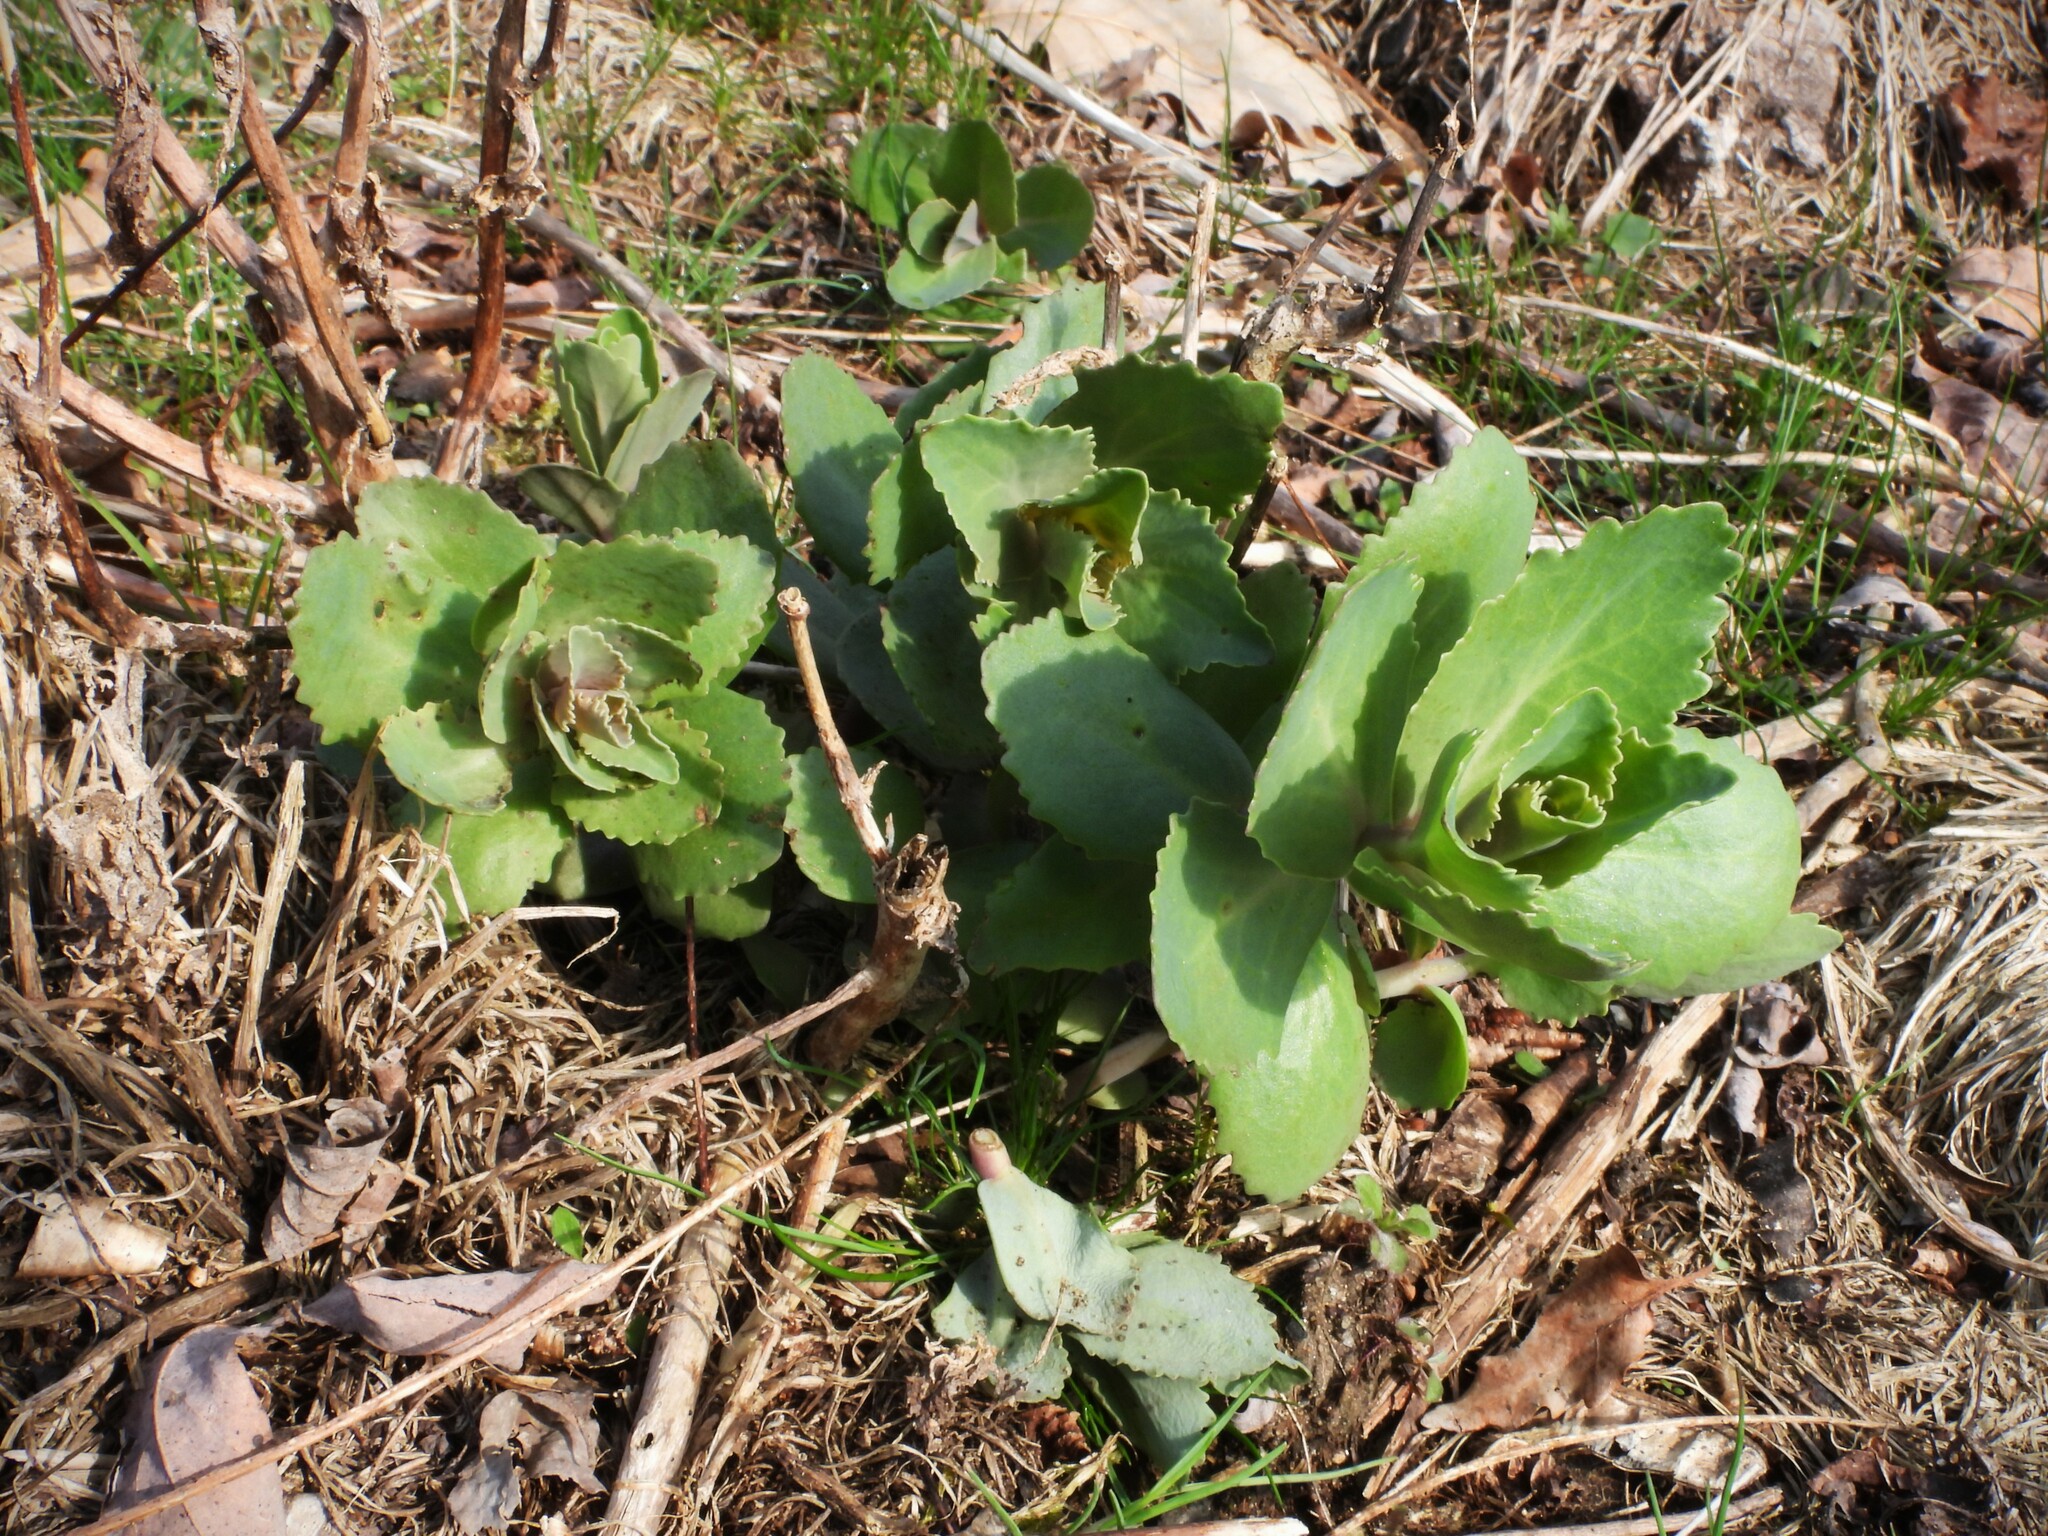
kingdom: Plantae
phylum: Tracheophyta
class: Magnoliopsida
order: Saxifragales
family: Crassulaceae
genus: Hylotelephium
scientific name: Hylotelephium maximum
